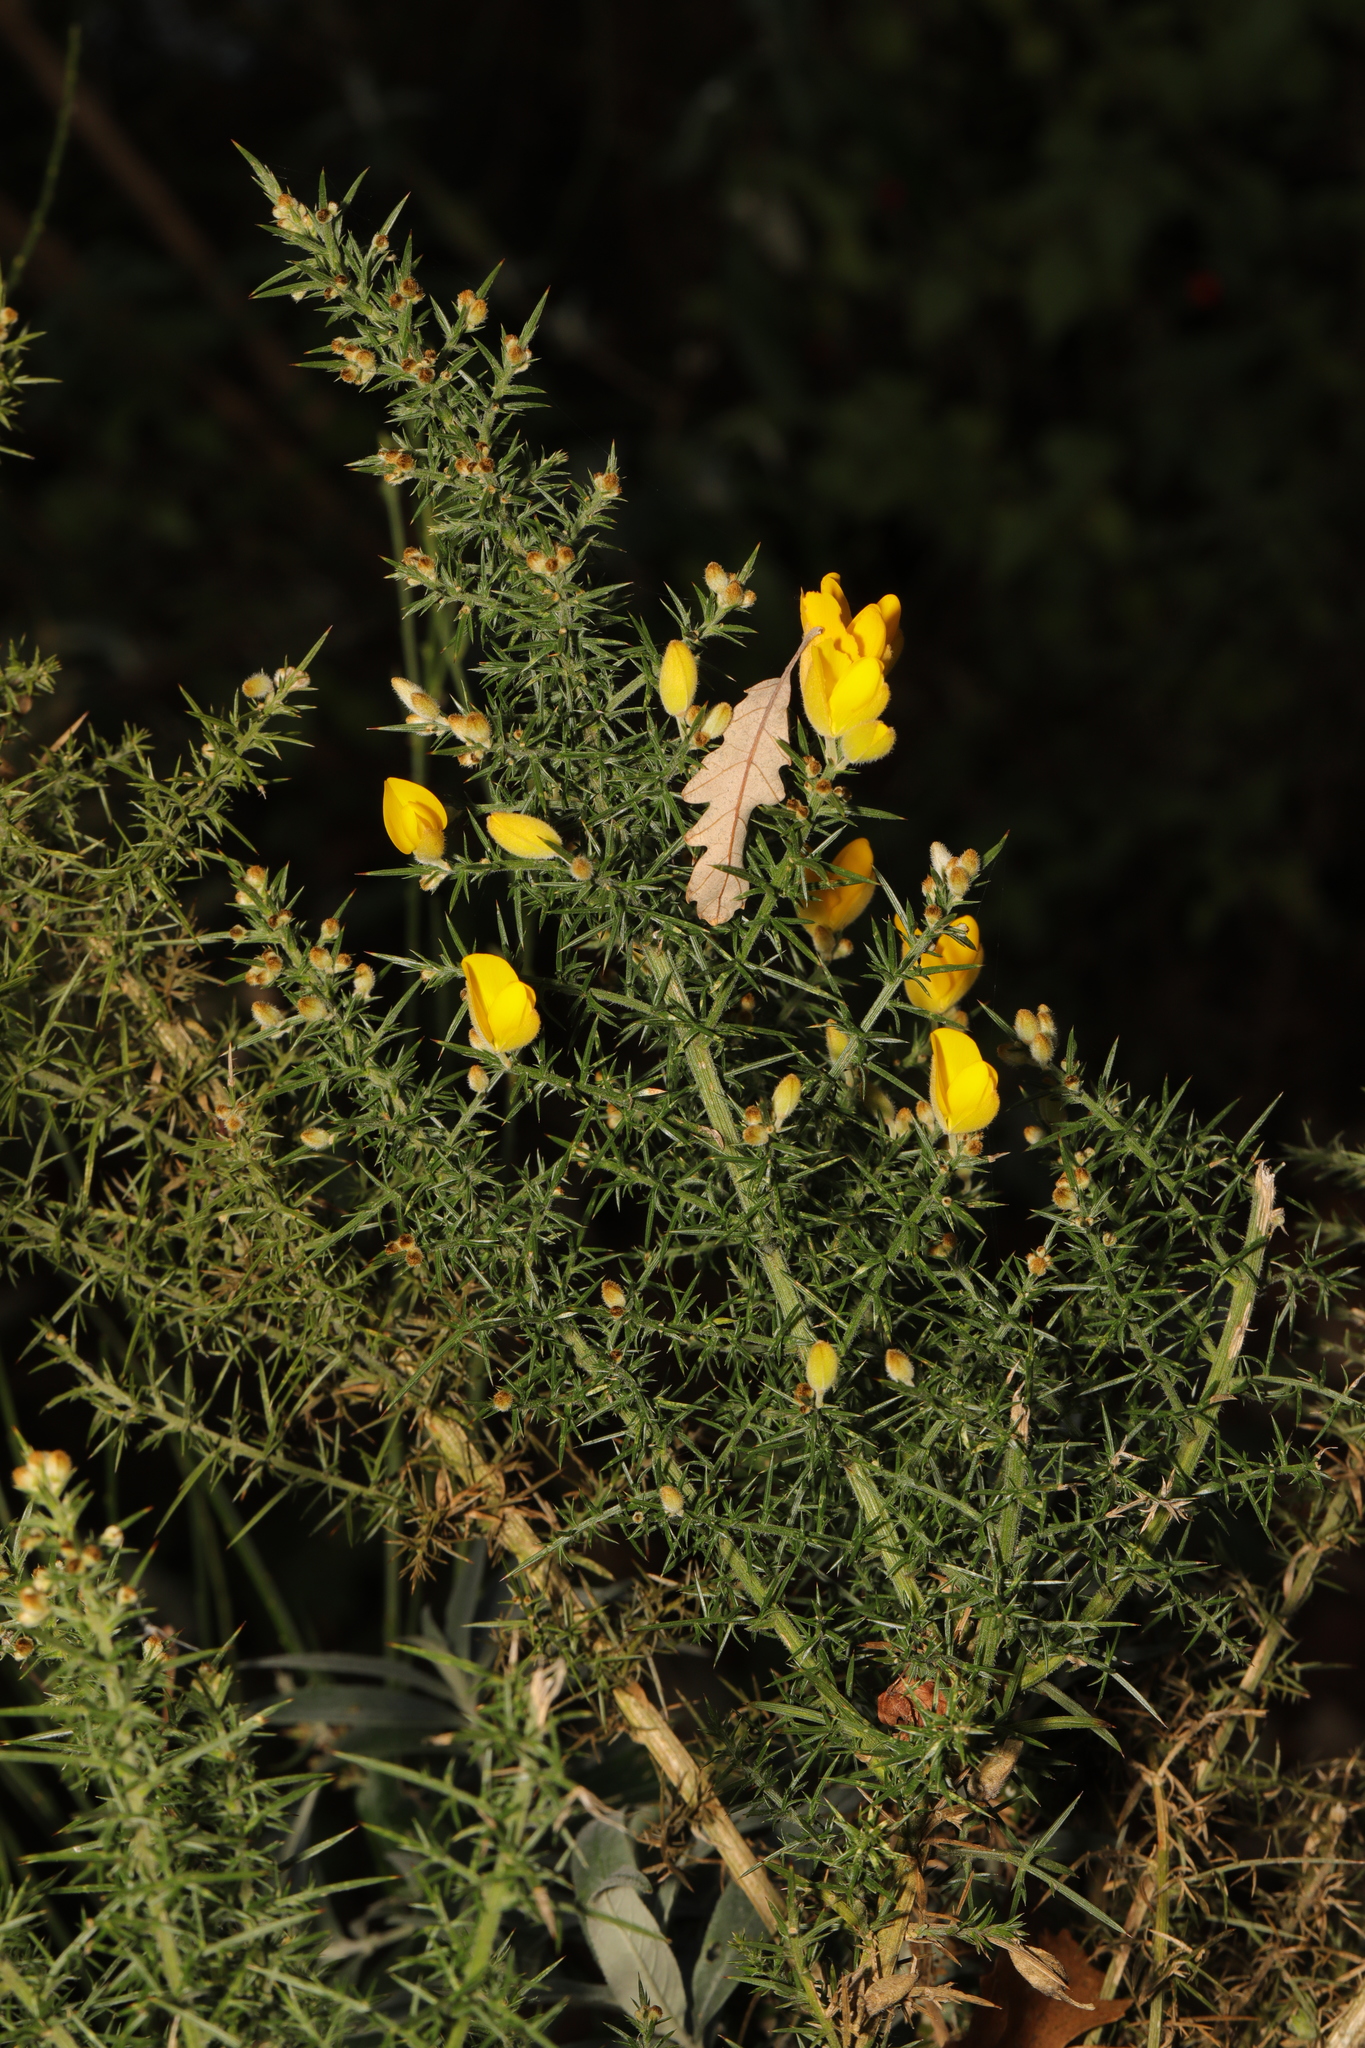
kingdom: Plantae
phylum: Tracheophyta
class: Magnoliopsida
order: Fabales
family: Fabaceae
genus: Ulex
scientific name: Ulex europaeus
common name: Common gorse
